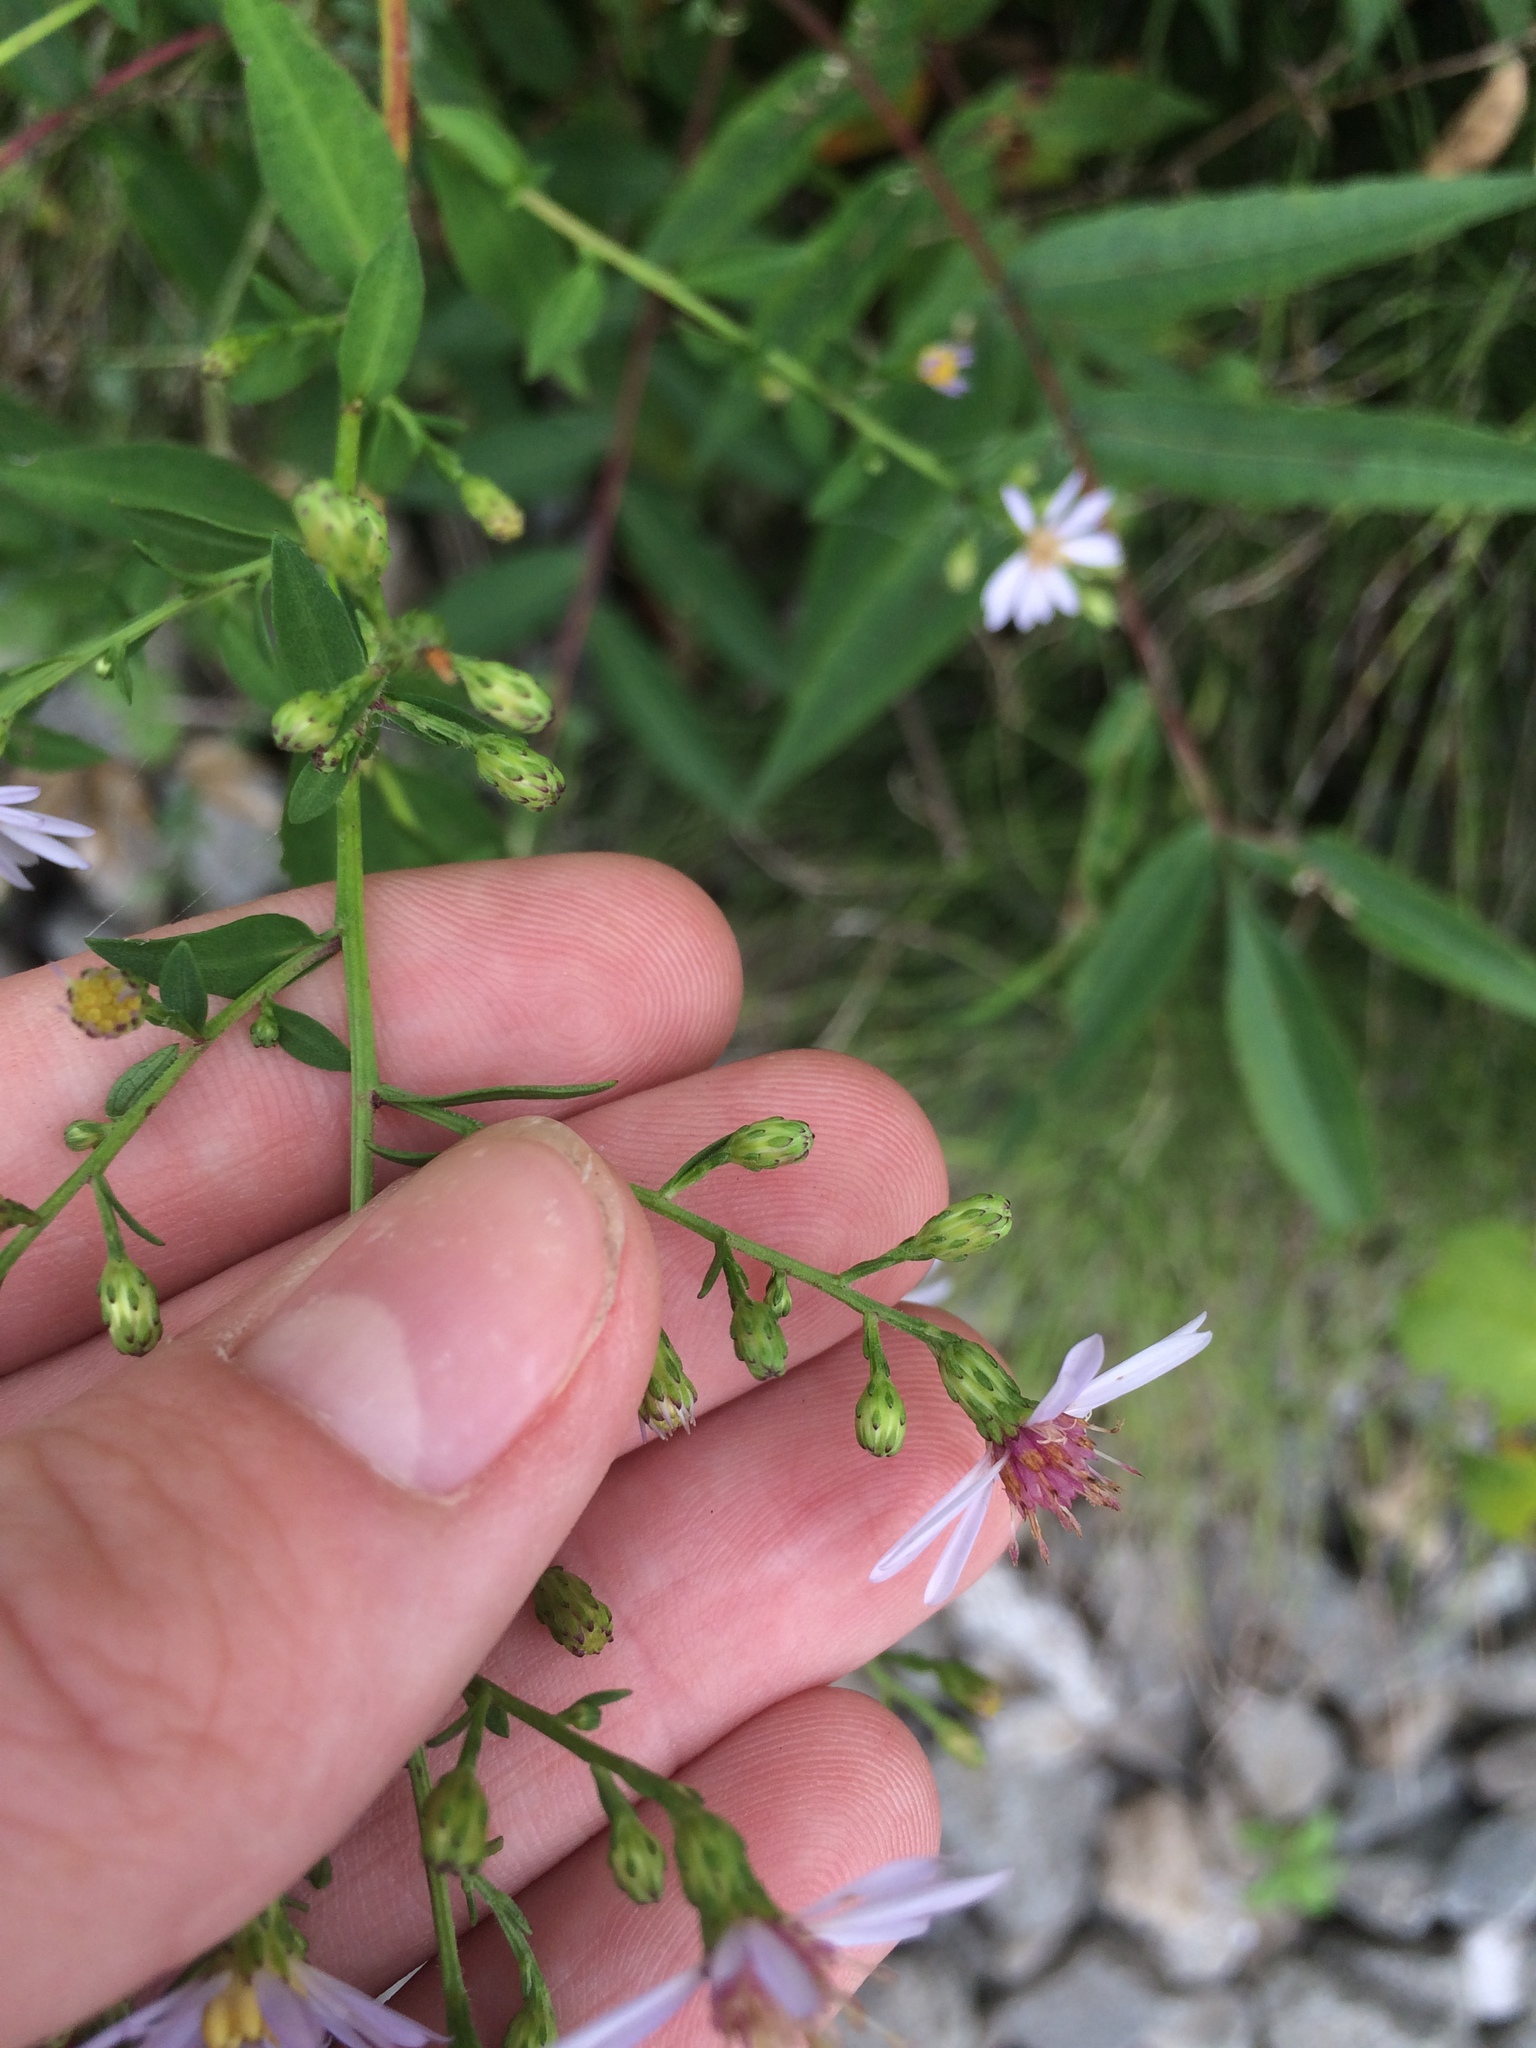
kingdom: Plantae
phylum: Tracheophyta
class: Magnoliopsida
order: Asterales
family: Asteraceae
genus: Symphyotrichum
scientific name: Symphyotrichum cordifolium
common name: Beeweed
